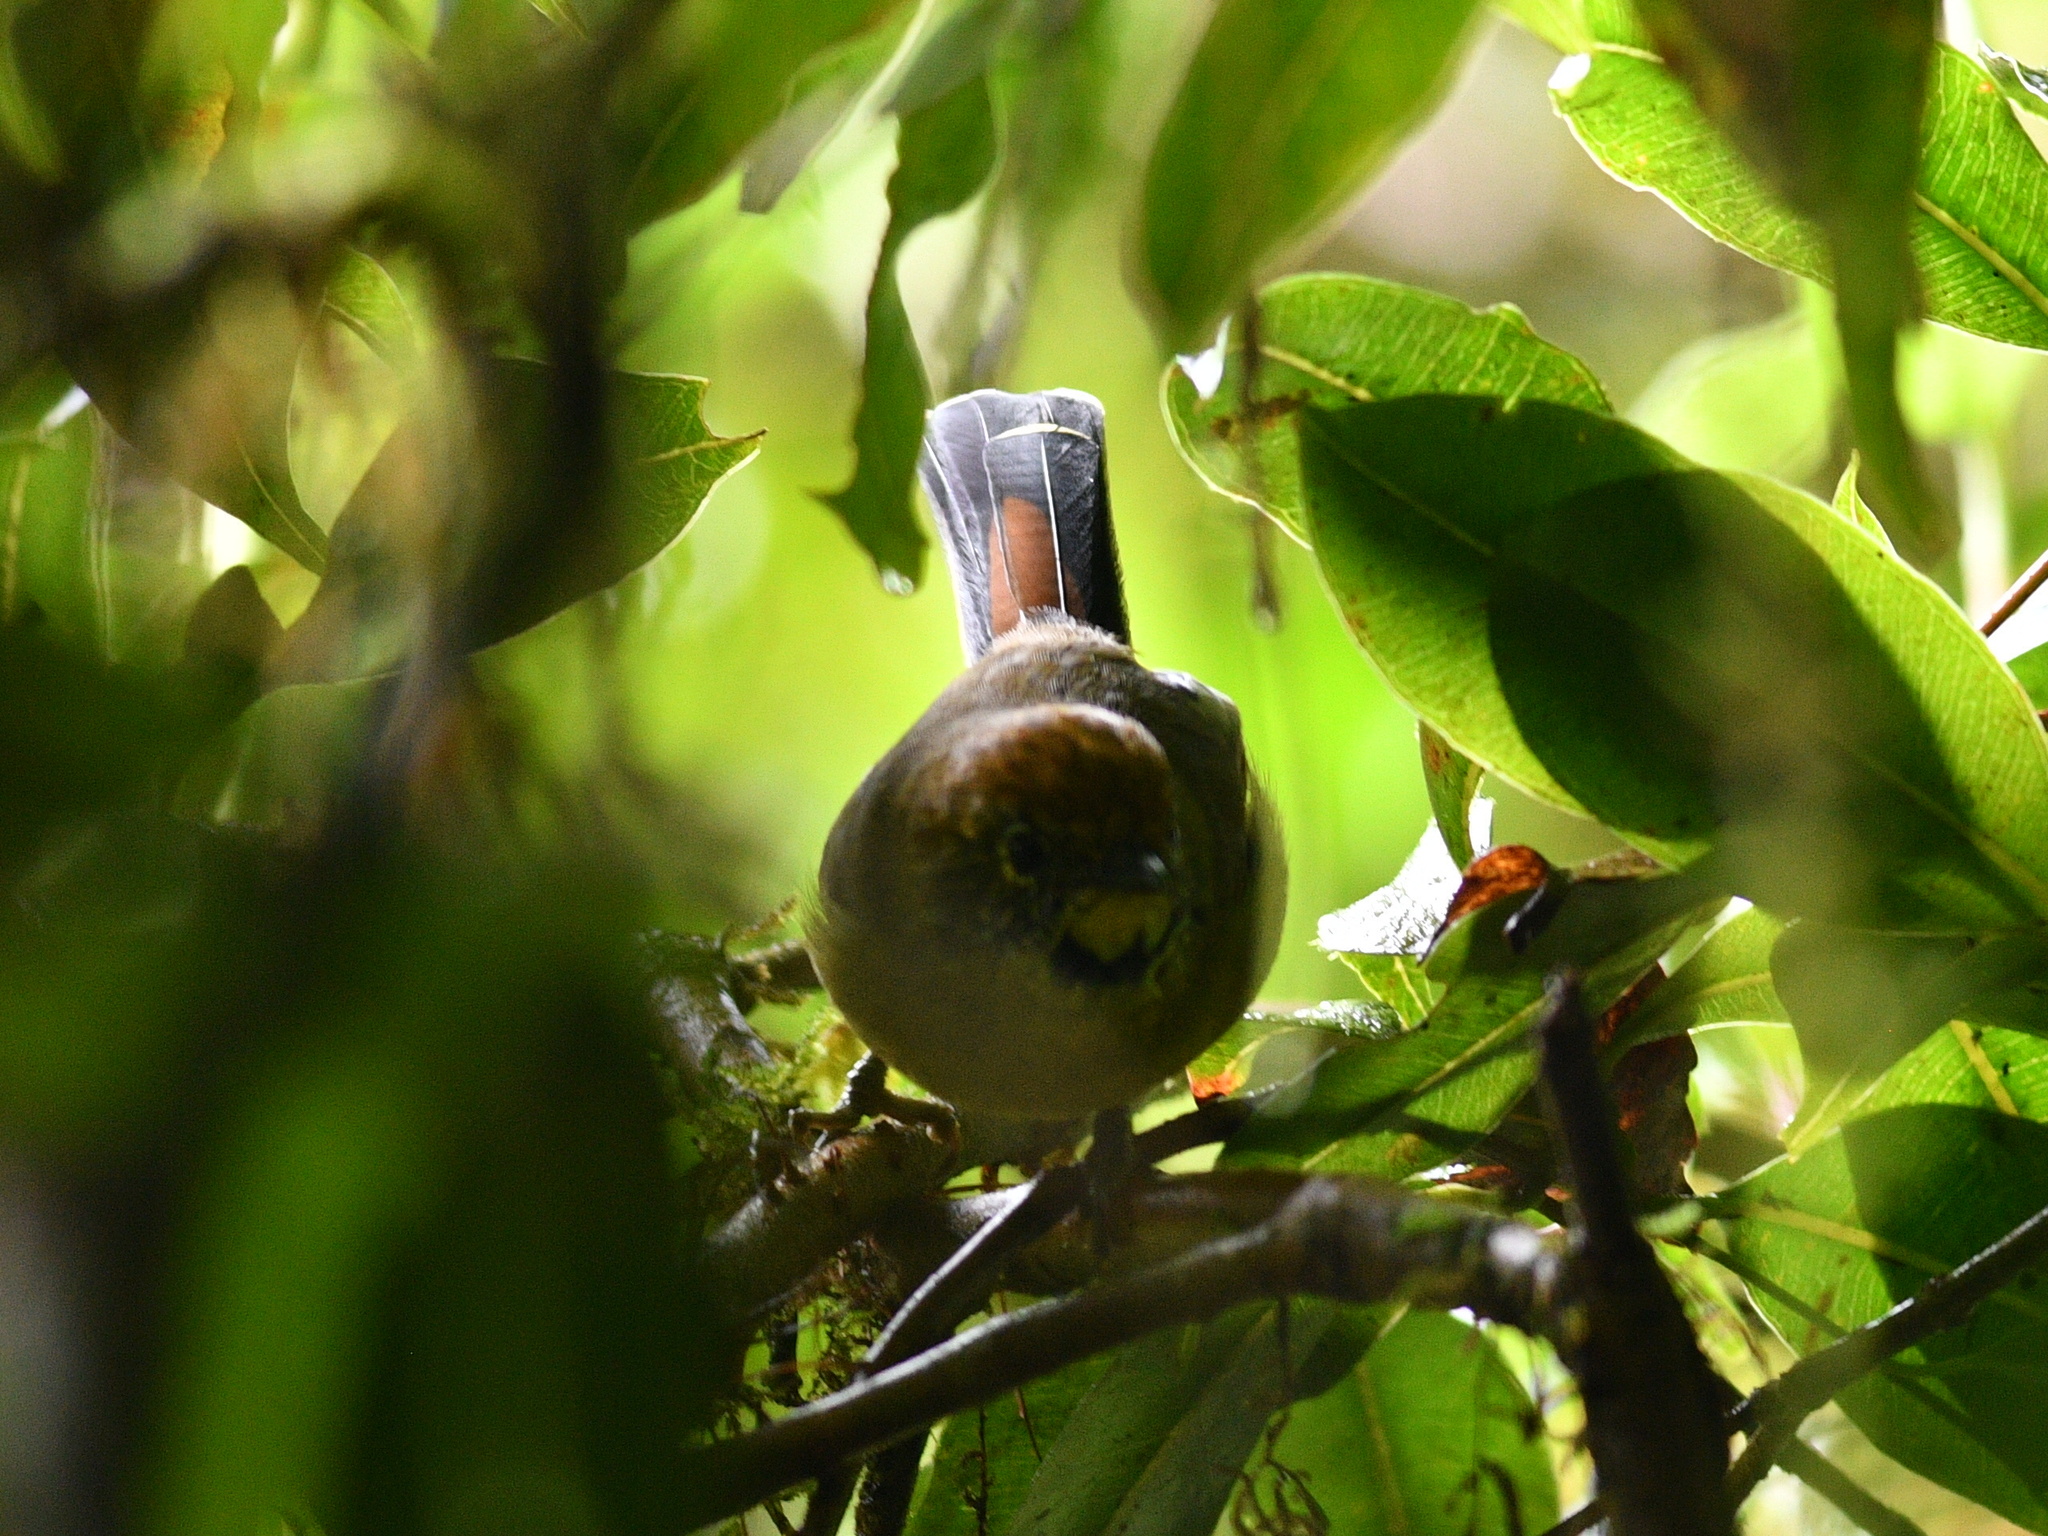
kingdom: Animalia
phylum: Chordata
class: Aves
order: Passeriformes
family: Leiothrichidae
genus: Minla
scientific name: Minla strigula
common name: Chestnut-tailed minla
